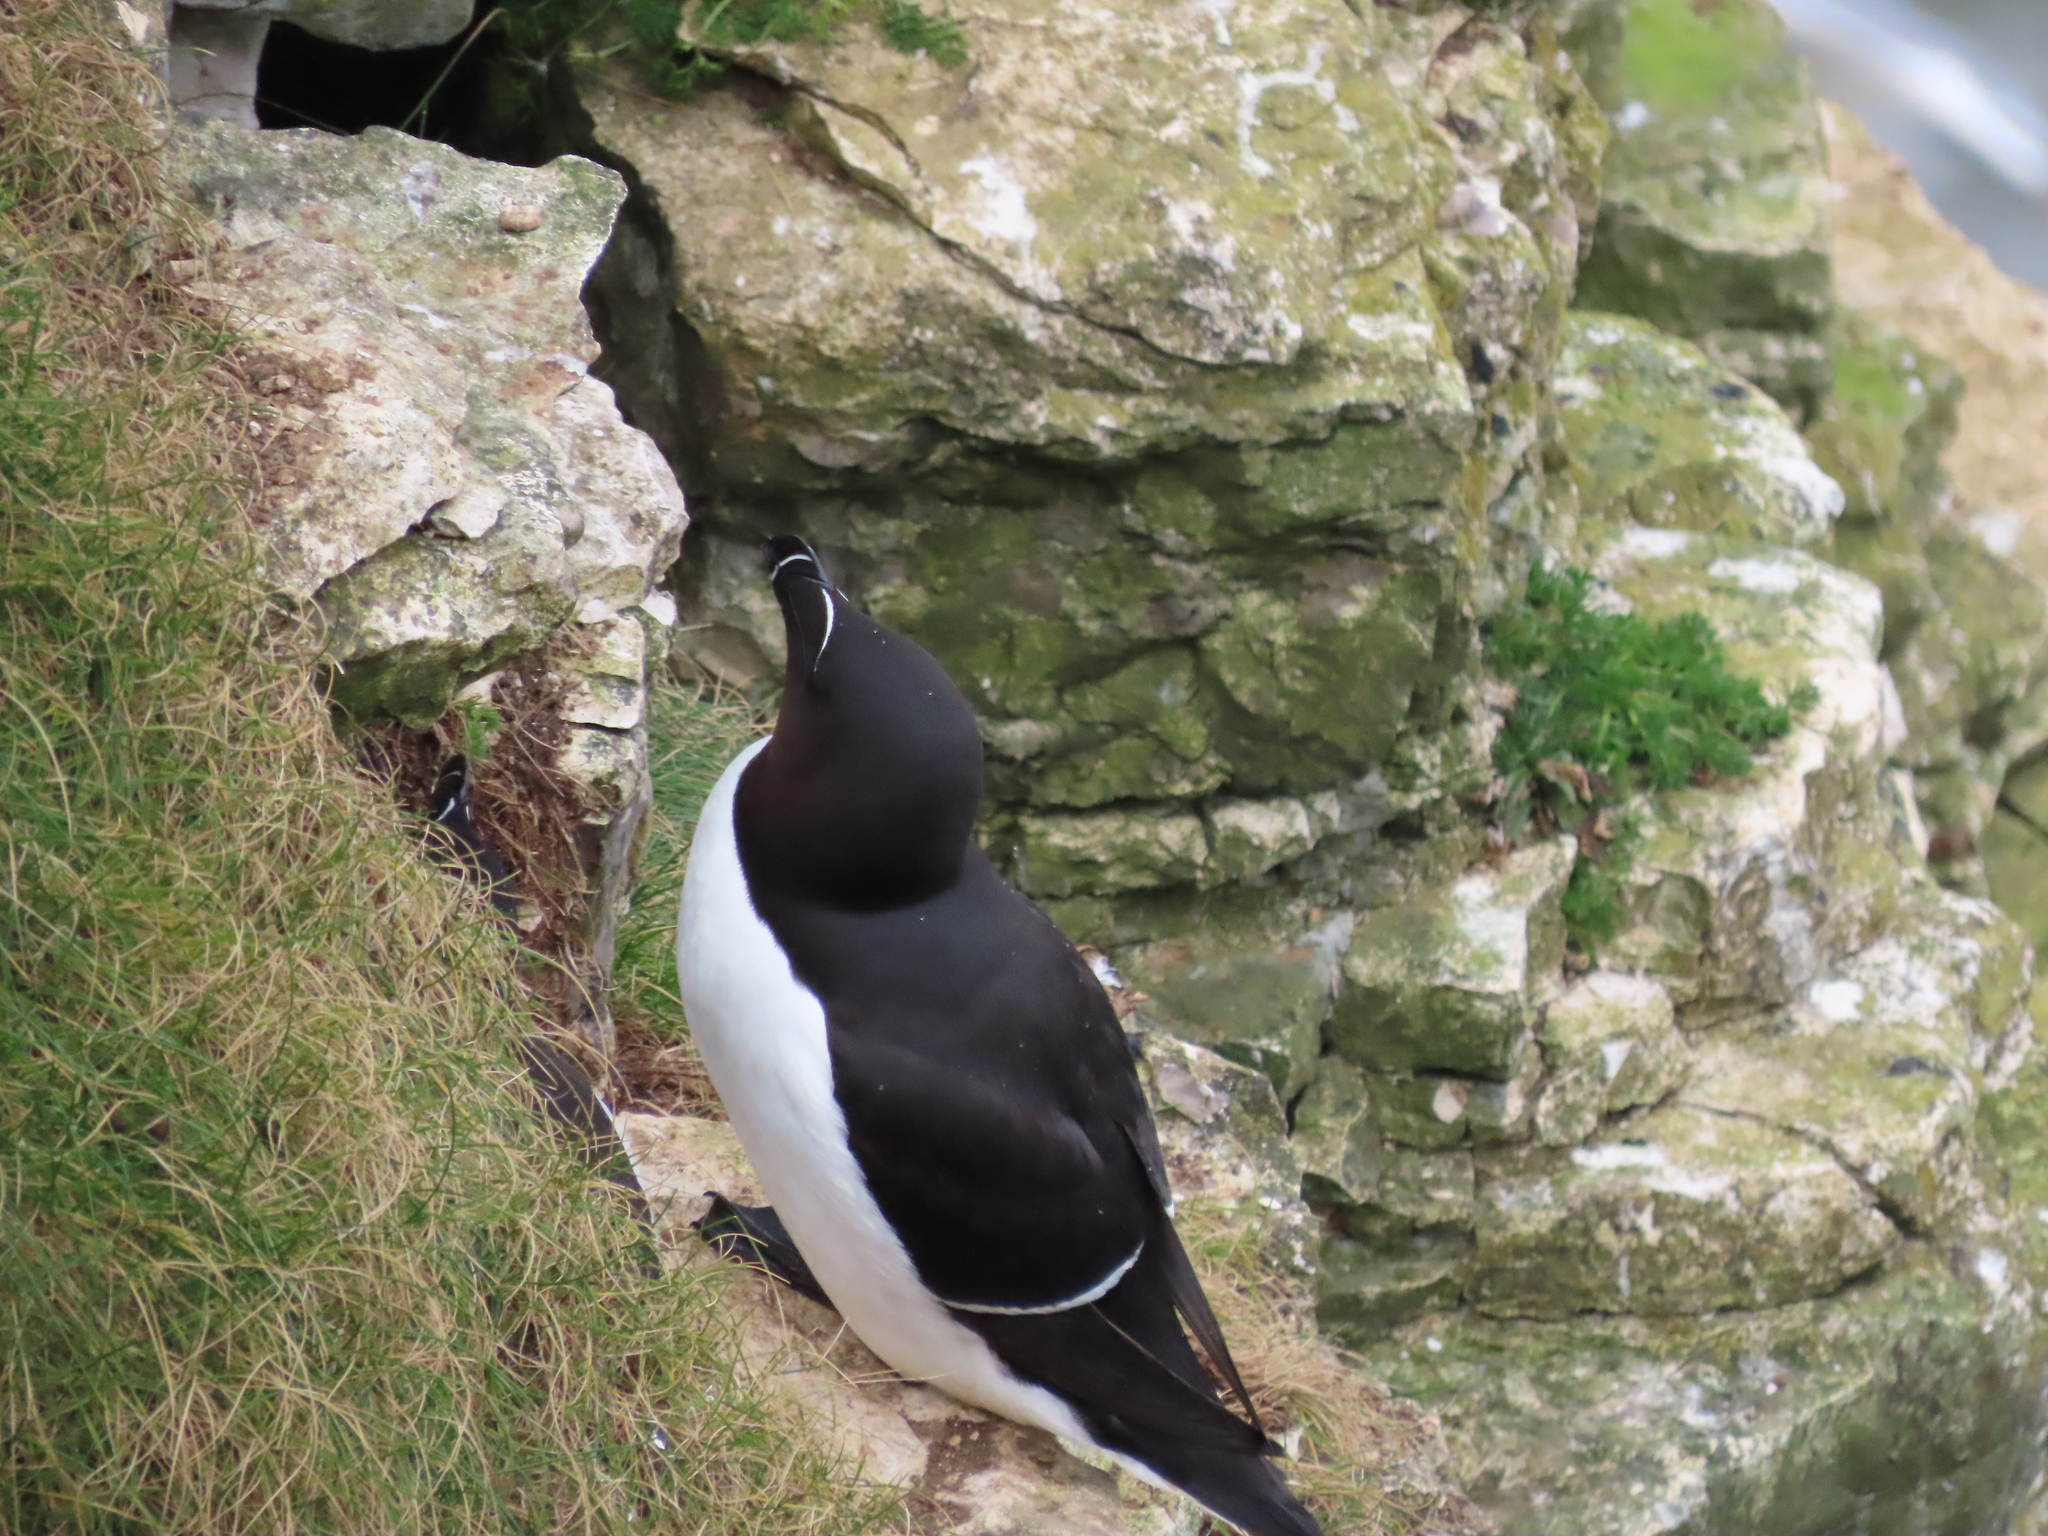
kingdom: Animalia
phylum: Chordata
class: Aves
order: Charadriiformes
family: Alcidae
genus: Alca
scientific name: Alca torda
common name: Razorbill
